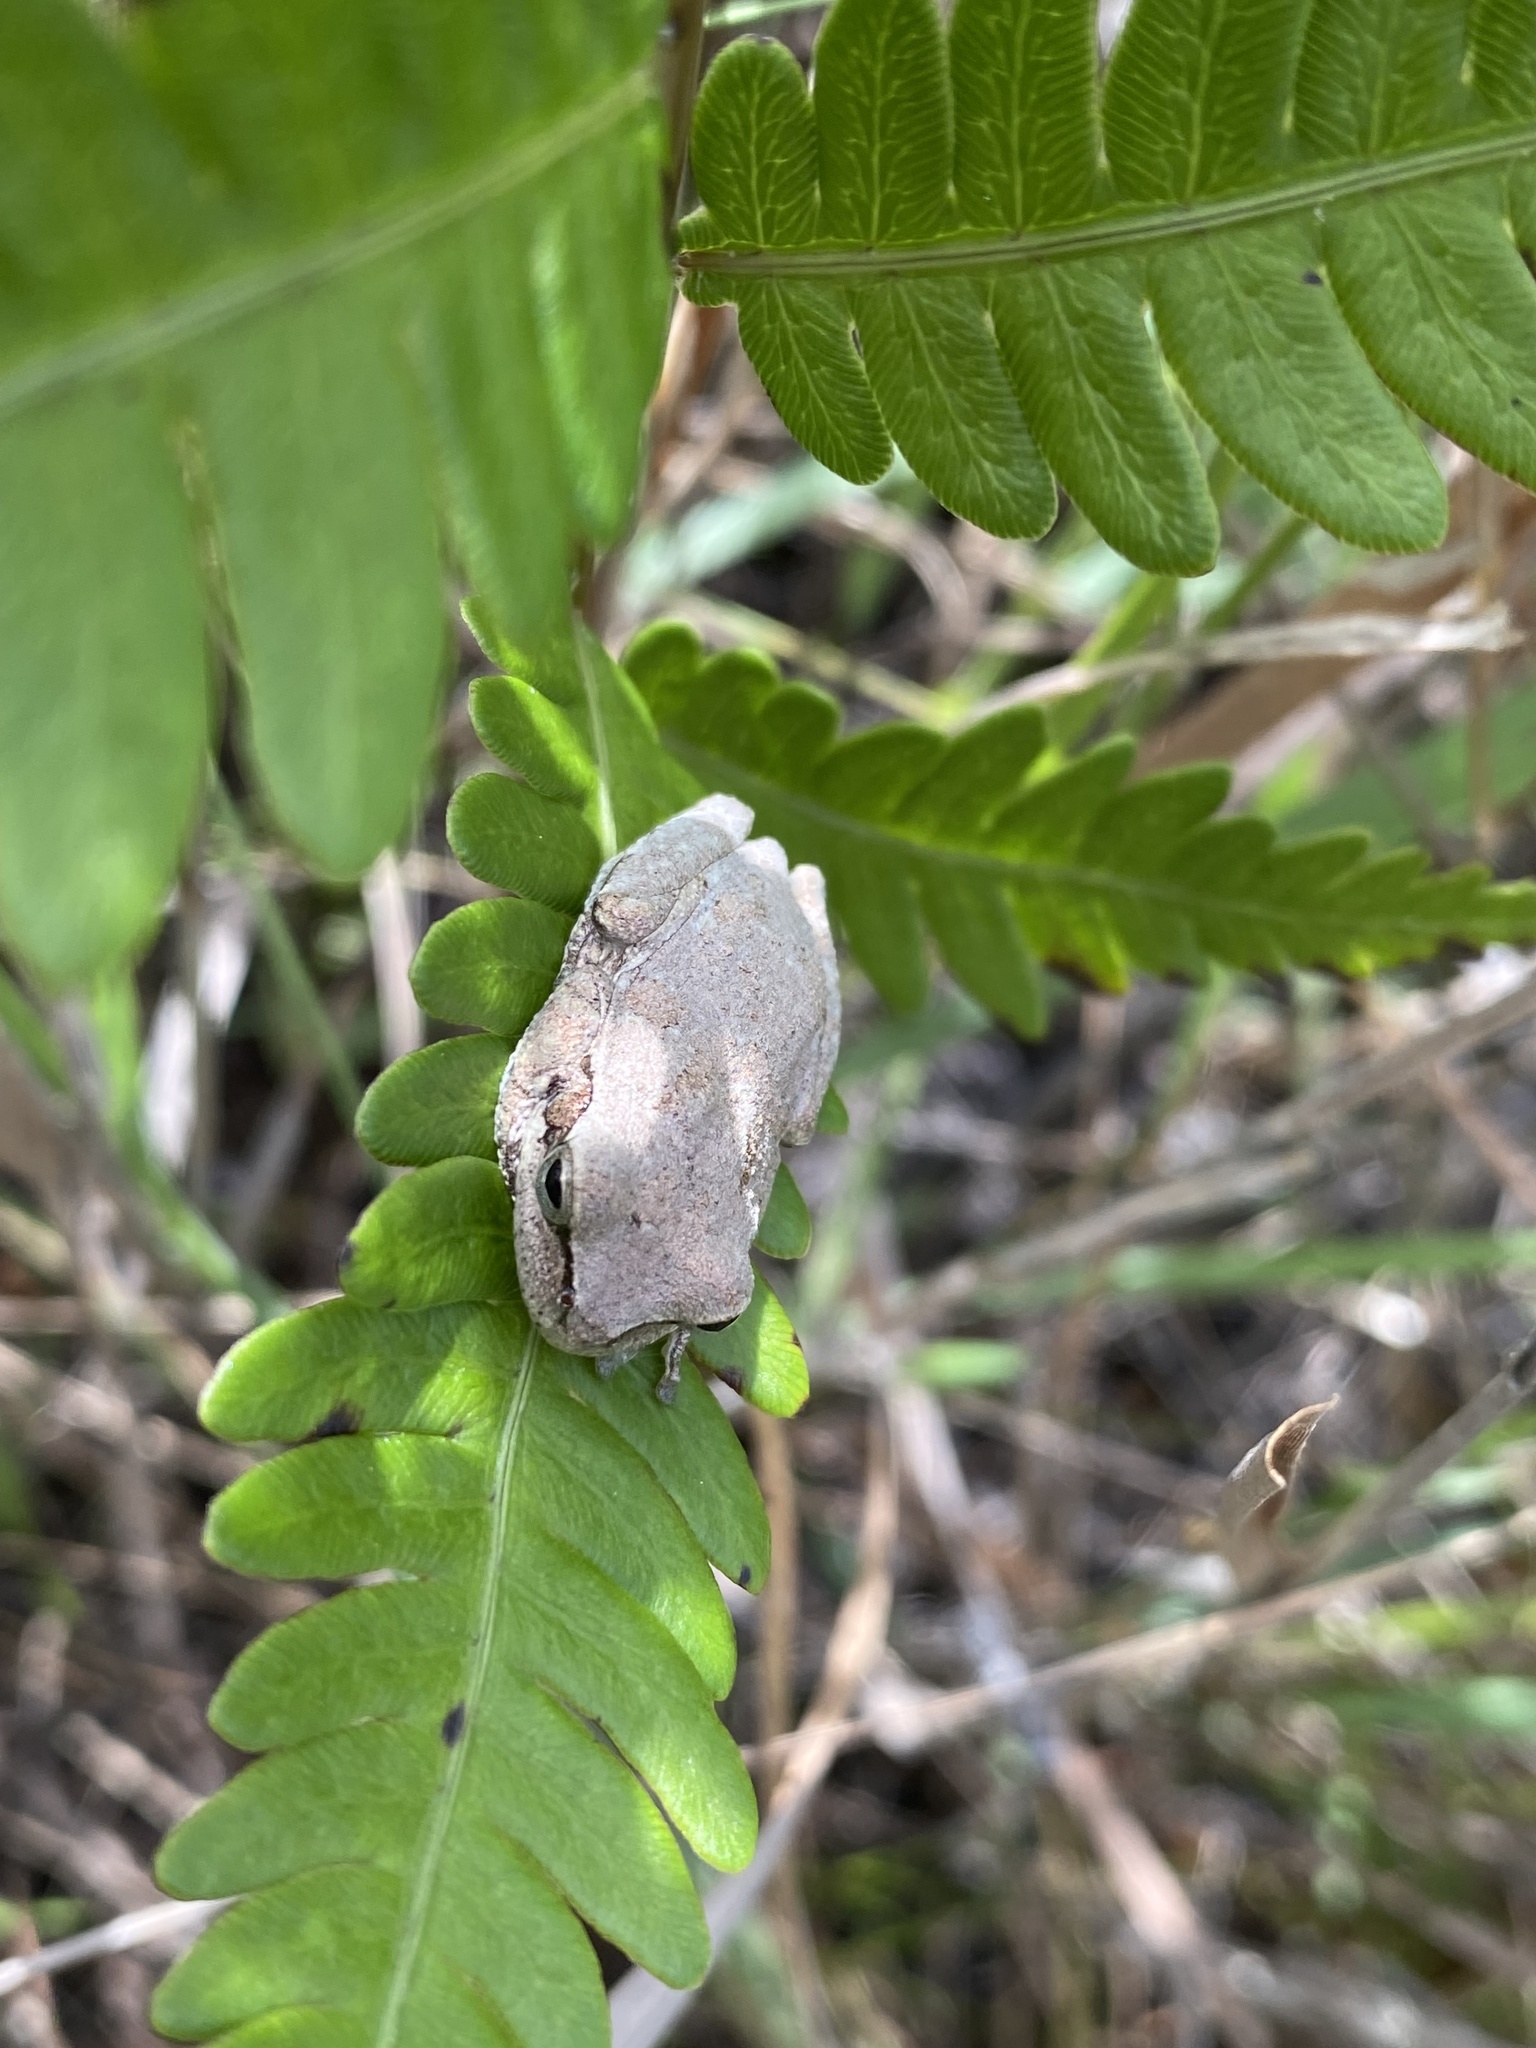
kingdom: Animalia
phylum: Chordata
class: Amphibia
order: Anura
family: Hylidae
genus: Hyla
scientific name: Hyla femoralis
